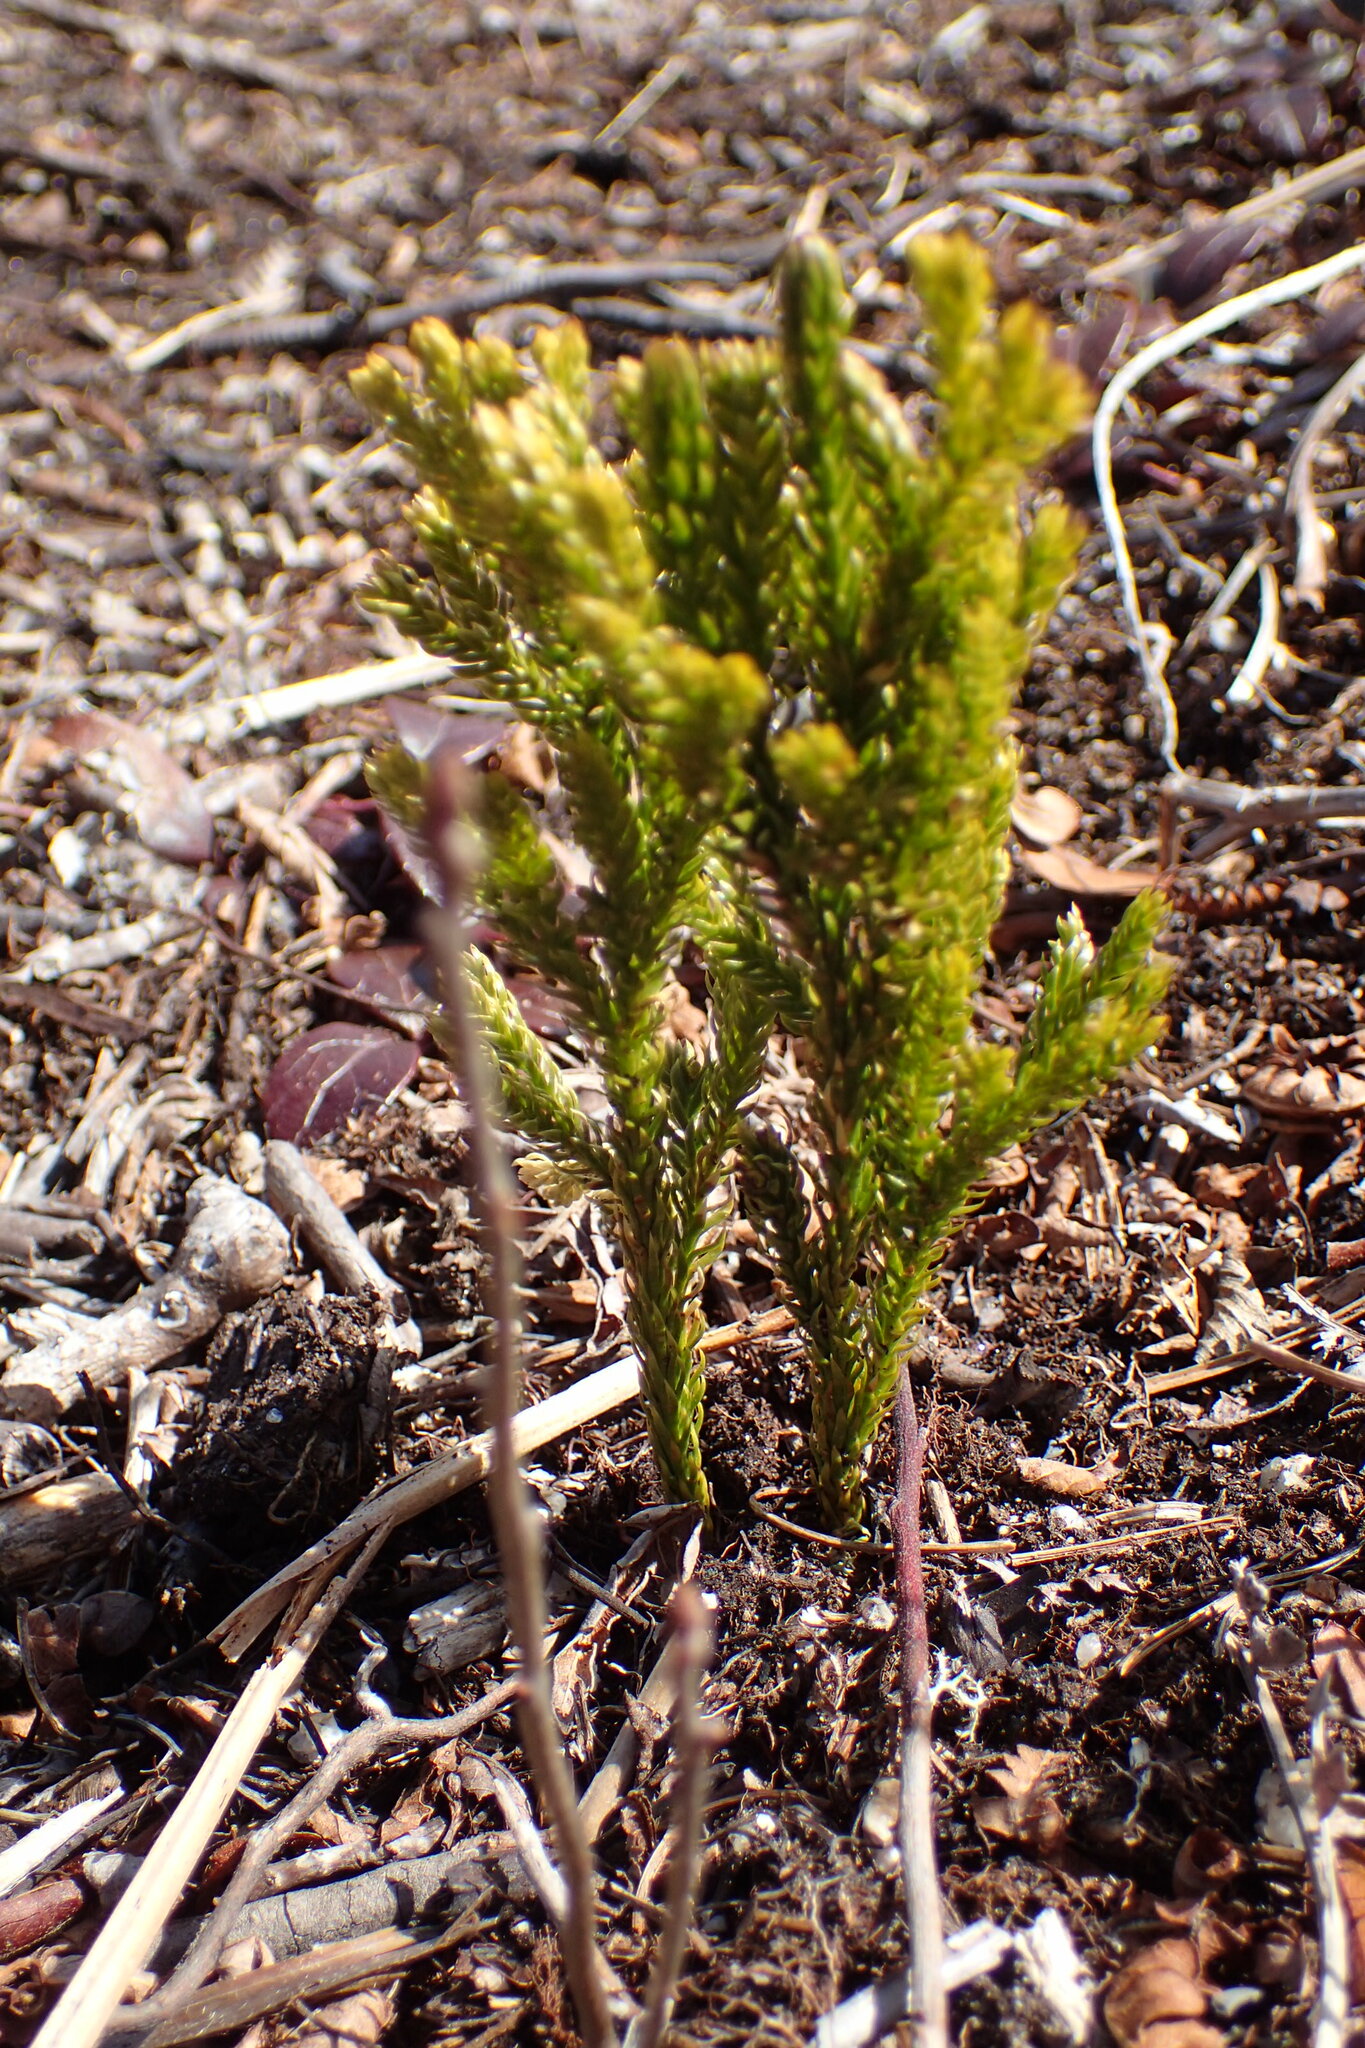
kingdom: Plantae
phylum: Tracheophyta
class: Lycopodiopsida
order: Lycopodiales
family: Lycopodiaceae
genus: Dendrolycopodium
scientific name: Dendrolycopodium hickeyi
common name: Hickey's clubmoss
